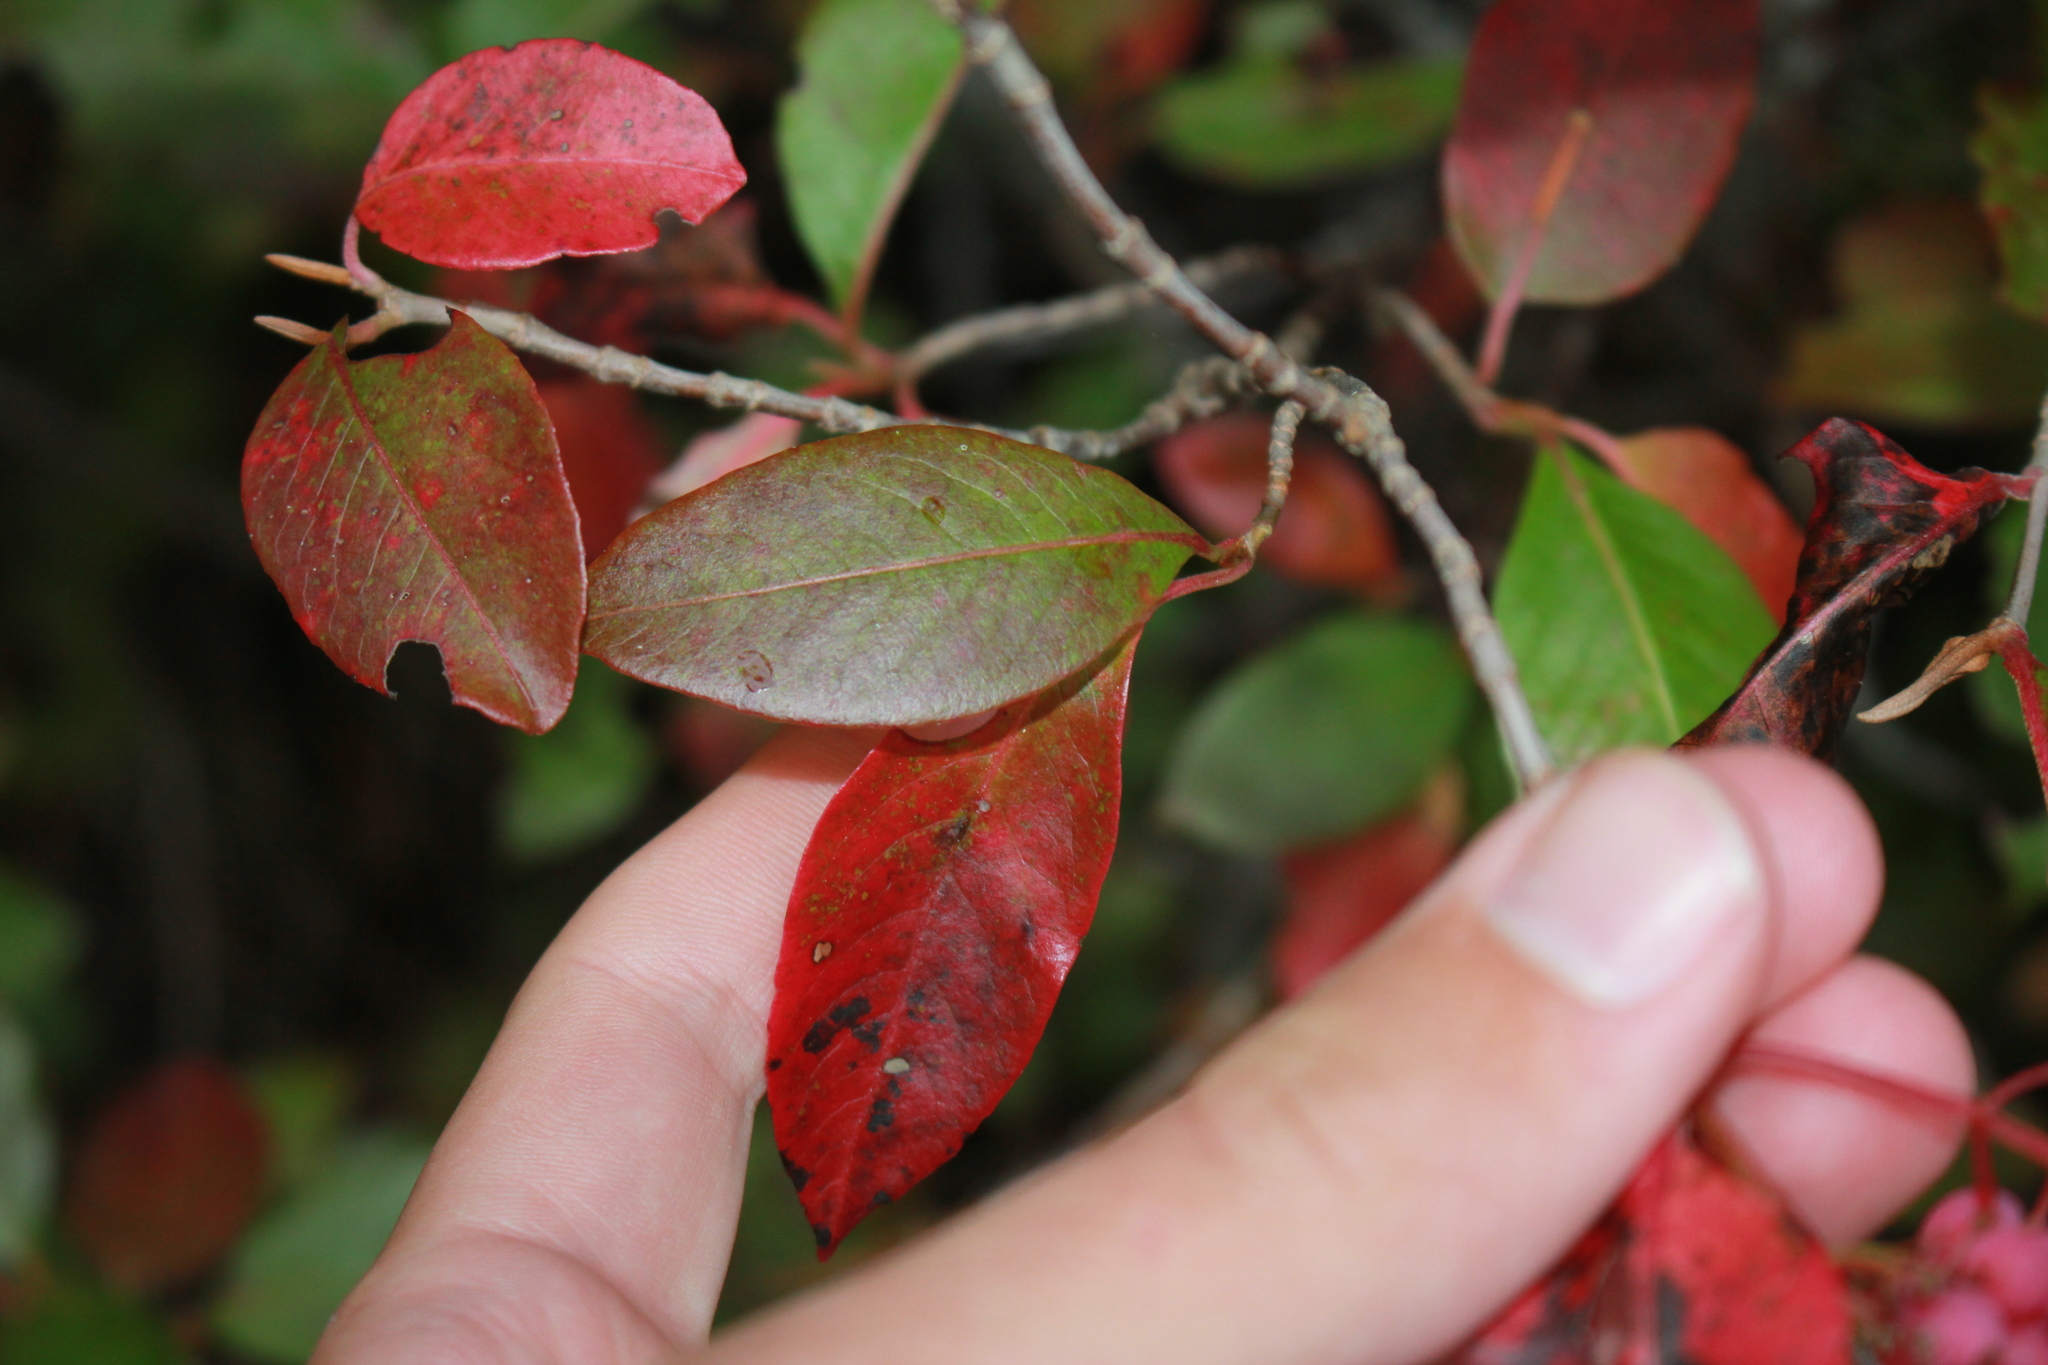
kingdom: Plantae
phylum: Tracheophyta
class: Magnoliopsida
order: Dipsacales
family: Viburnaceae
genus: Viburnum
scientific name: Viburnum cassinoides
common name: Swamp haw
